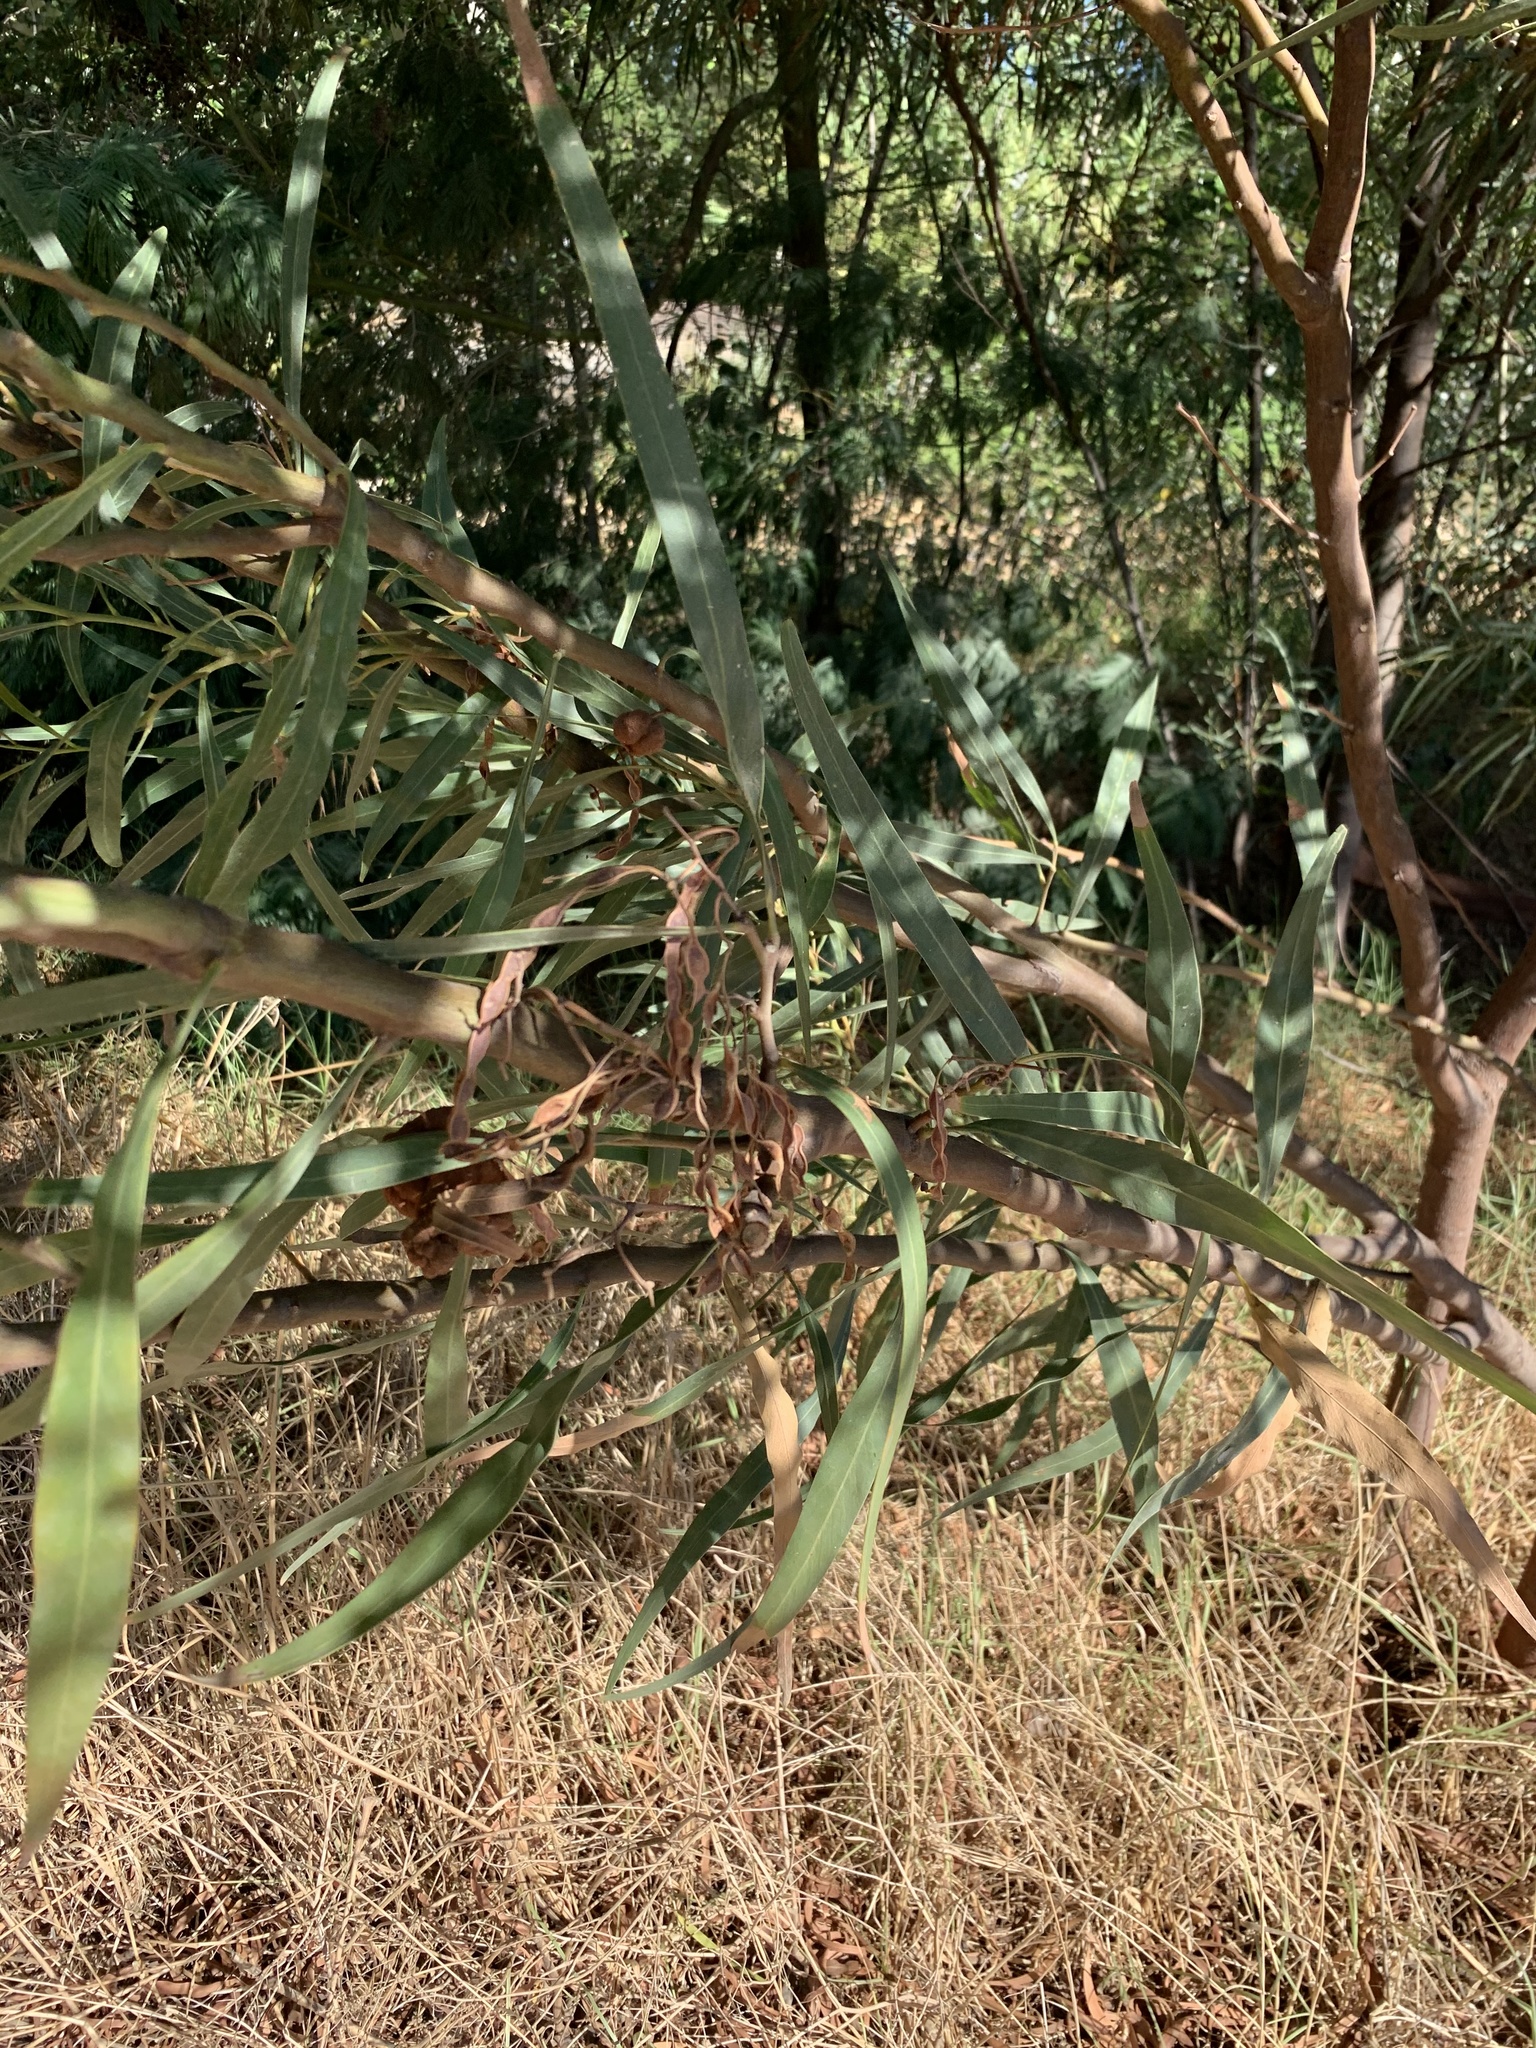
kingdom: Plantae
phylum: Tracheophyta
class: Magnoliopsida
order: Fabales
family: Fabaceae
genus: Acacia
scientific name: Acacia saligna
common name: Orange wattle
